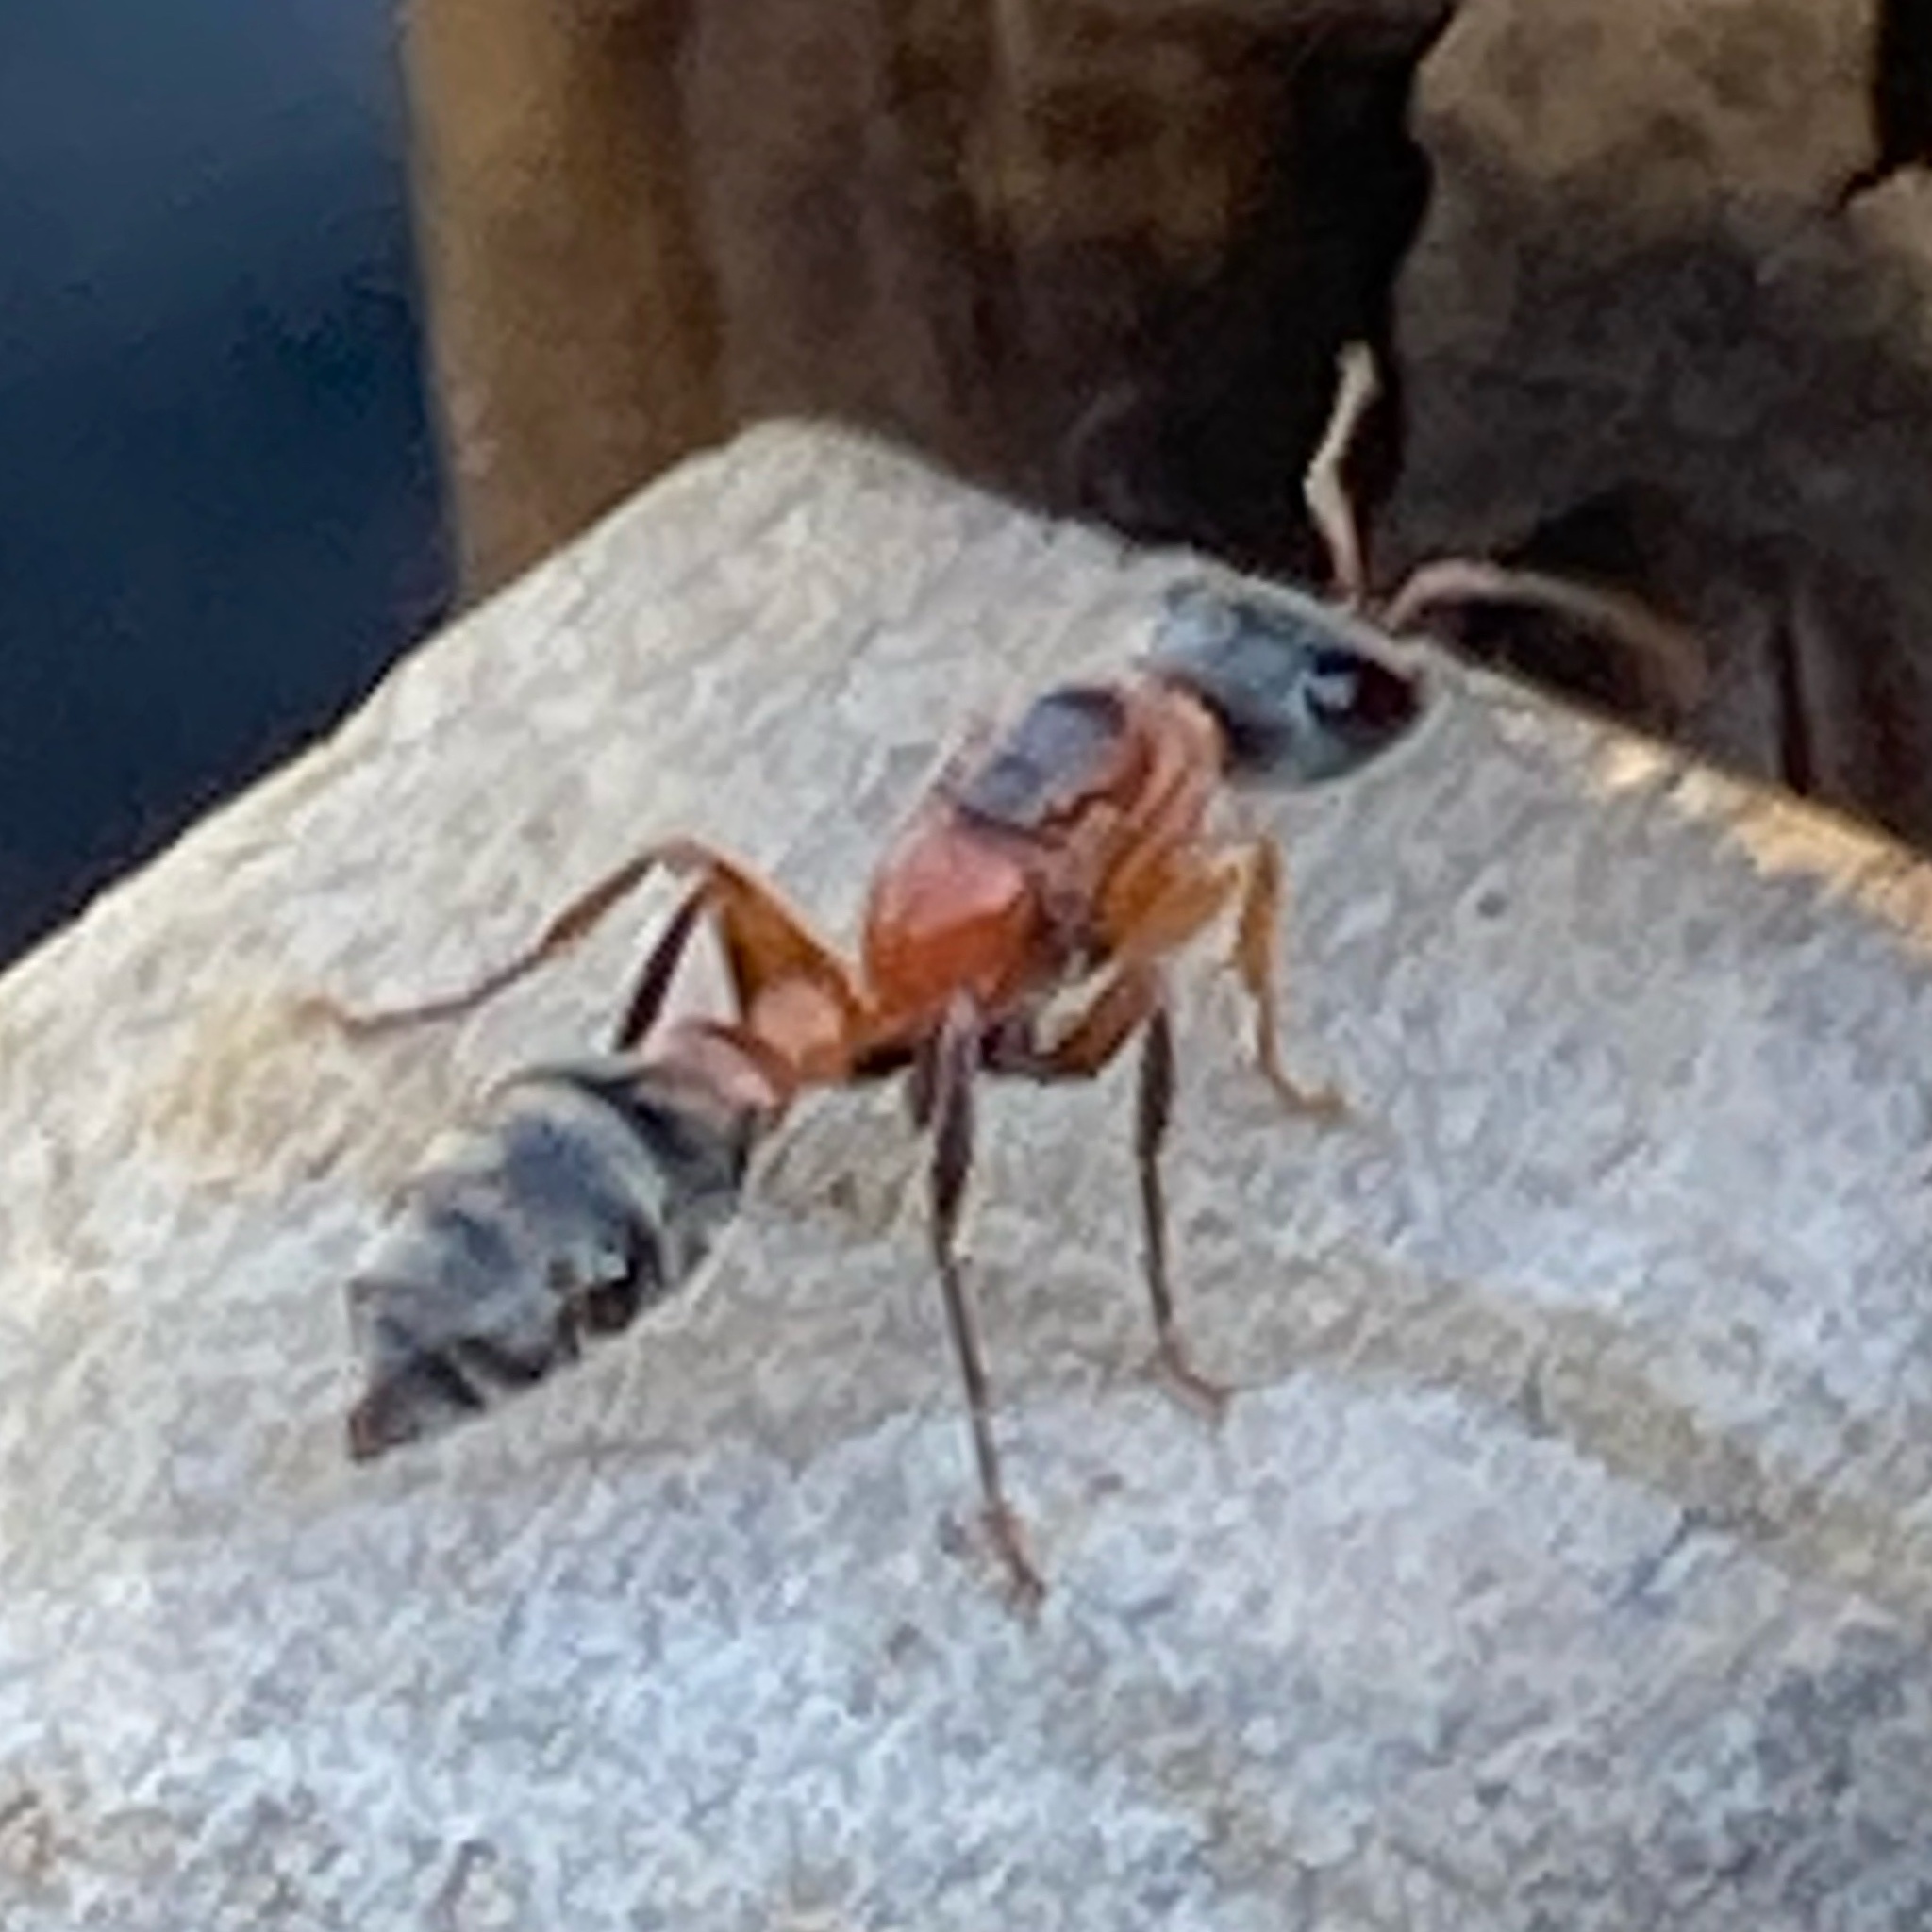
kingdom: Animalia
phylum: Arthropoda
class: Insecta
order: Hymenoptera
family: Formicidae
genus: Pseudomyrmex
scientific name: Pseudomyrmex gracilis
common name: Graceful twig ant
